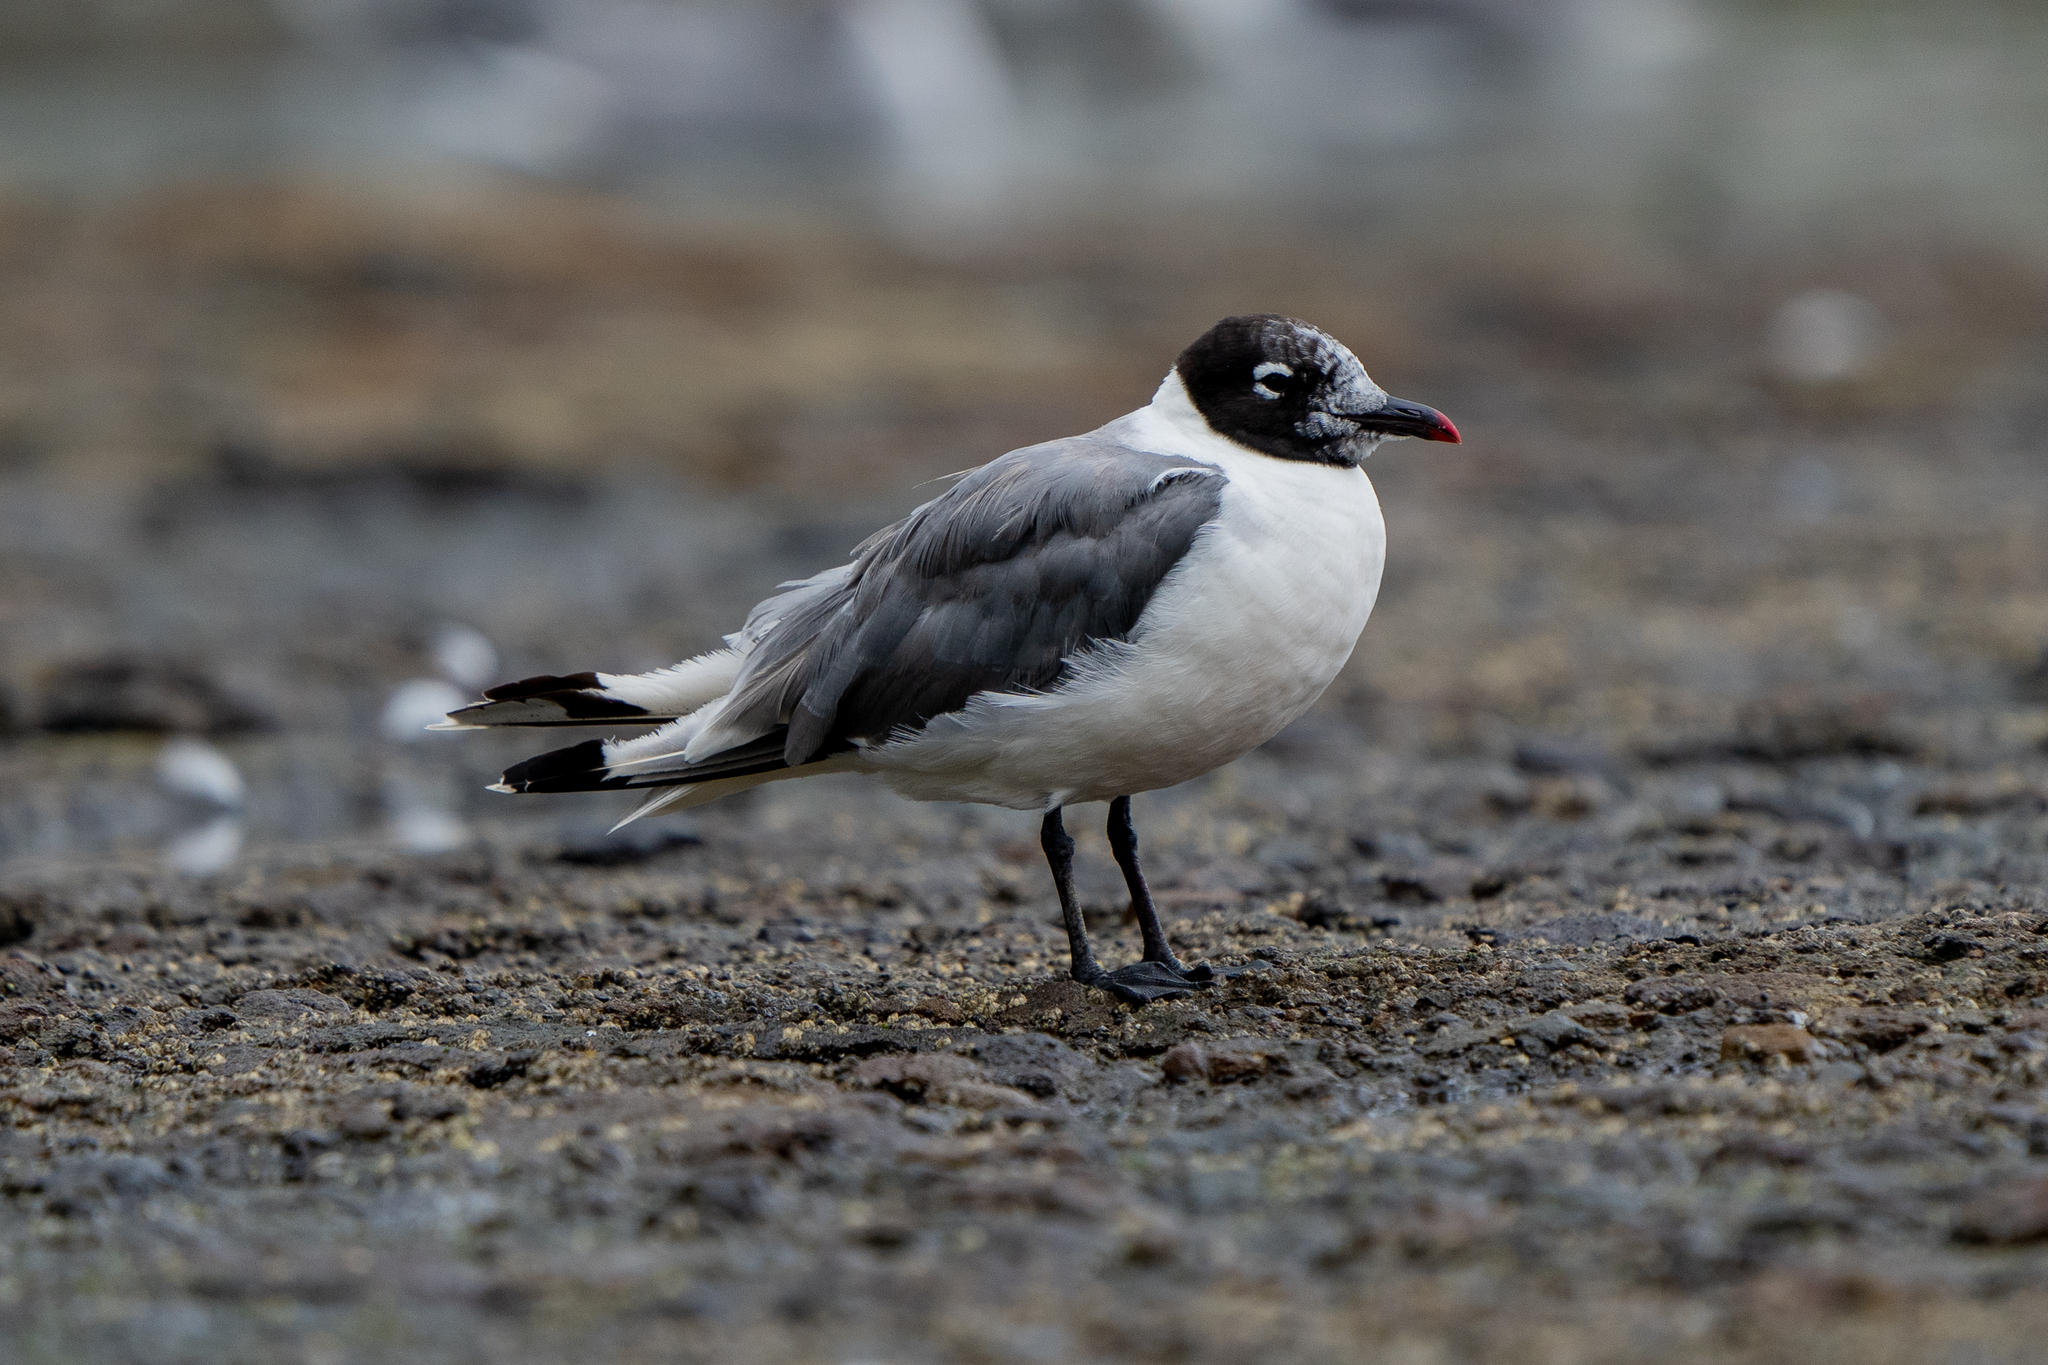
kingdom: Animalia
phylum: Chordata
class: Aves
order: Charadriiformes
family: Laridae
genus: Leucophaeus
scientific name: Leucophaeus pipixcan
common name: Franklin's gull
